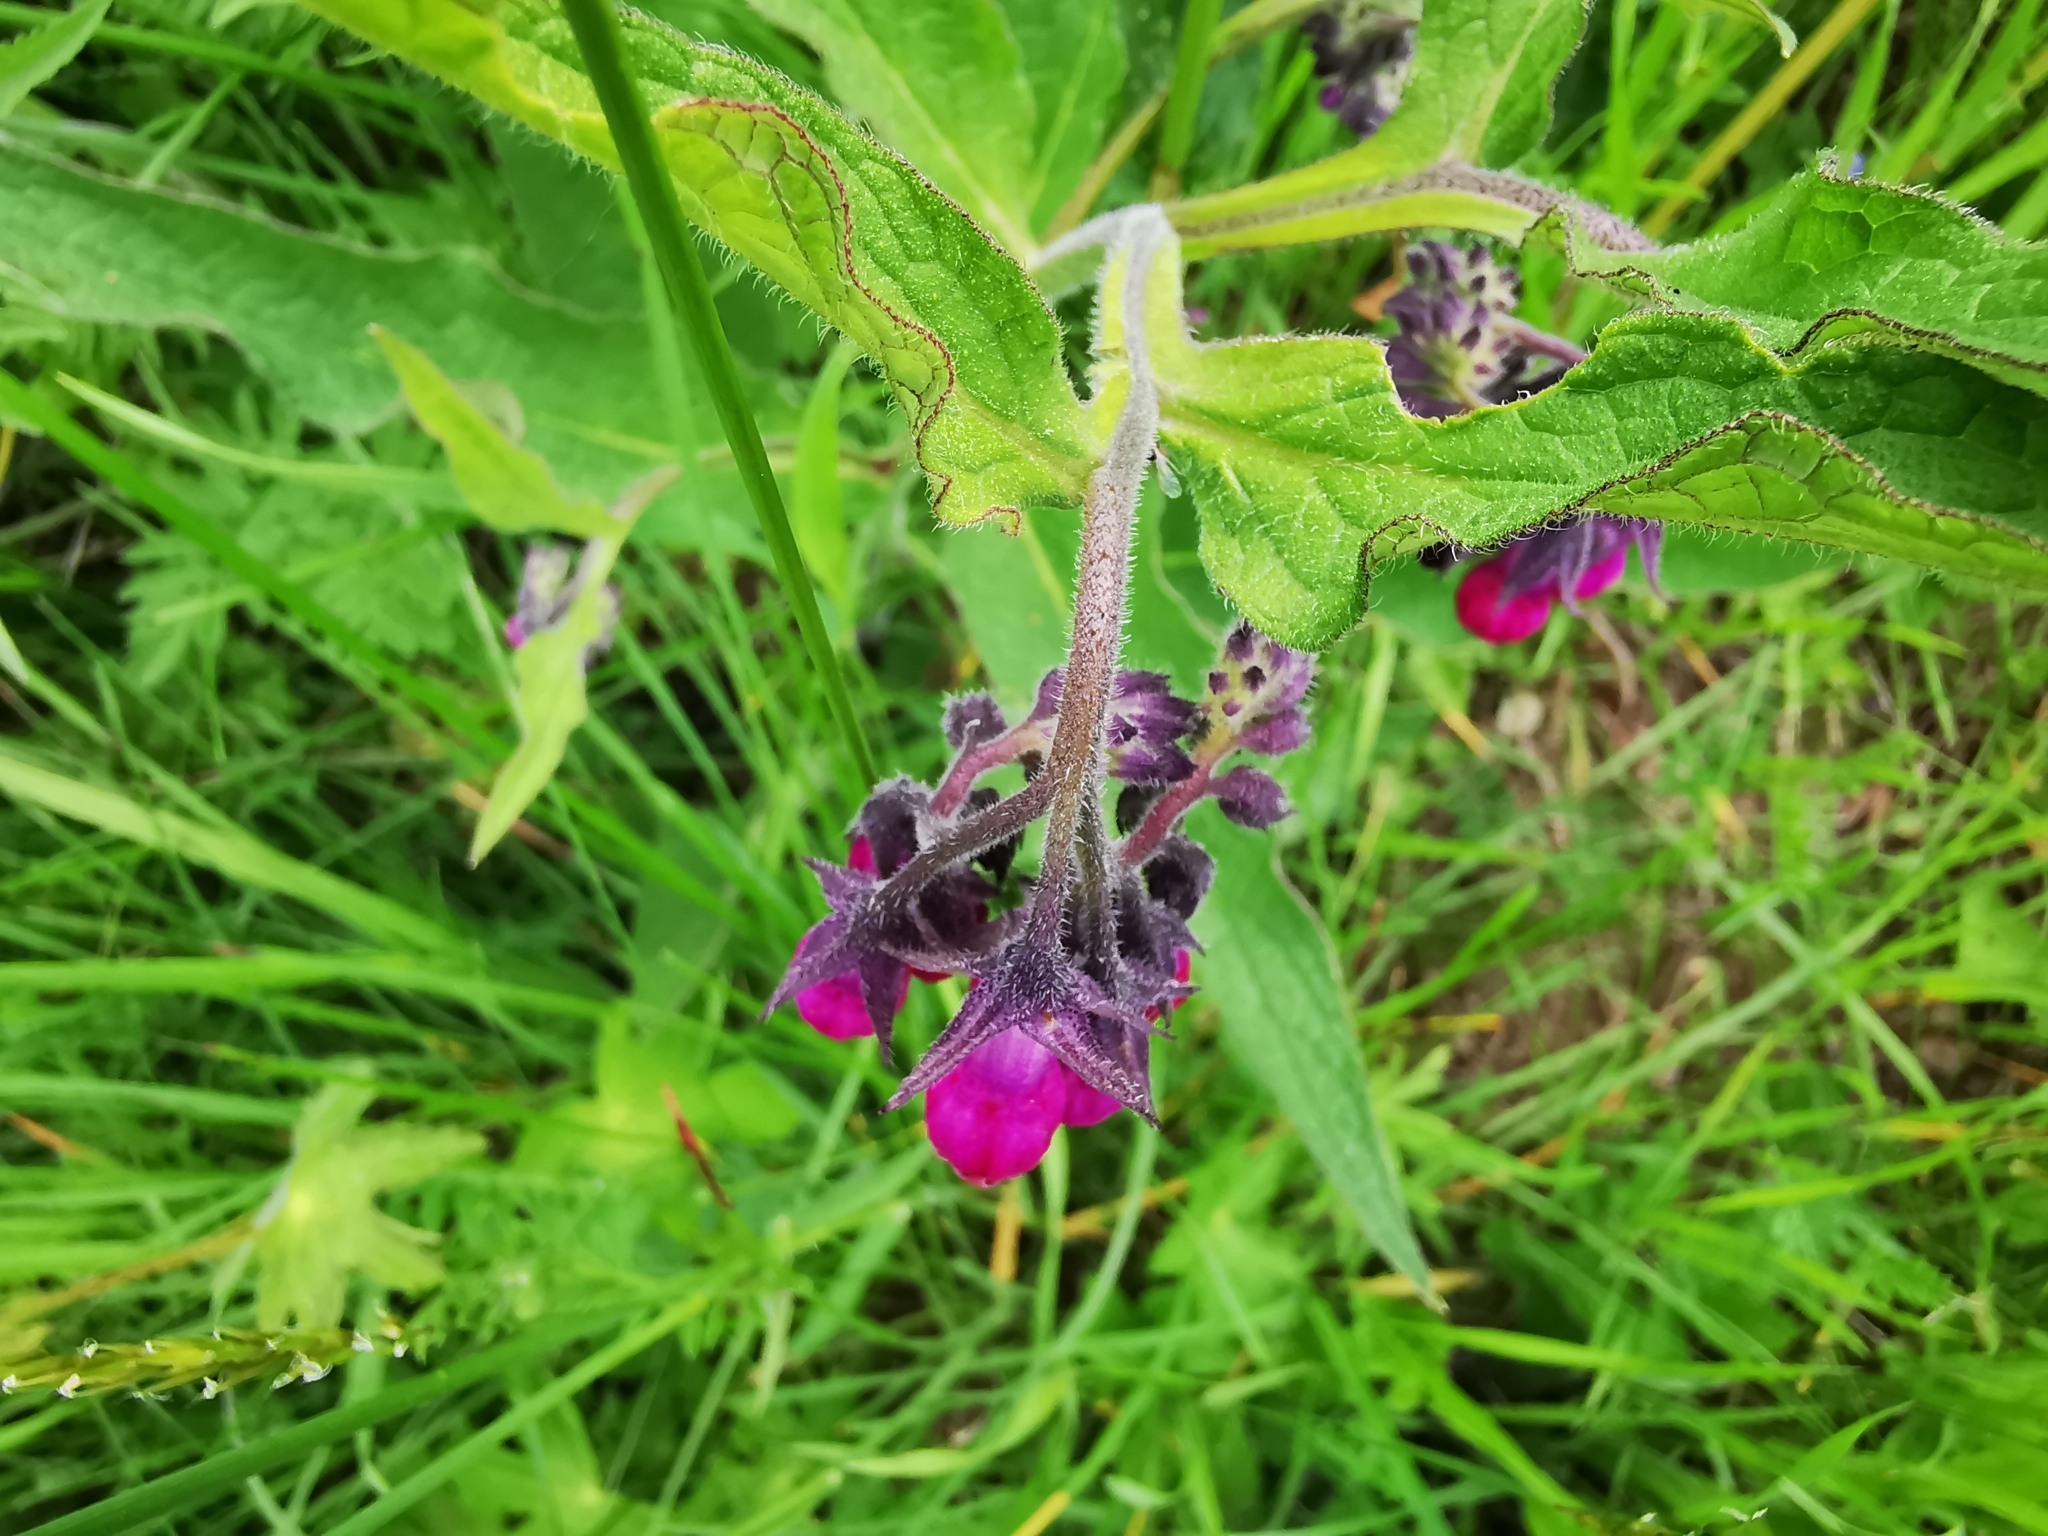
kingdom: Plantae
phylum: Tracheophyta
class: Magnoliopsida
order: Boraginales
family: Boraginaceae
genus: Symphytum
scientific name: Symphytum officinale
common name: Common comfrey
